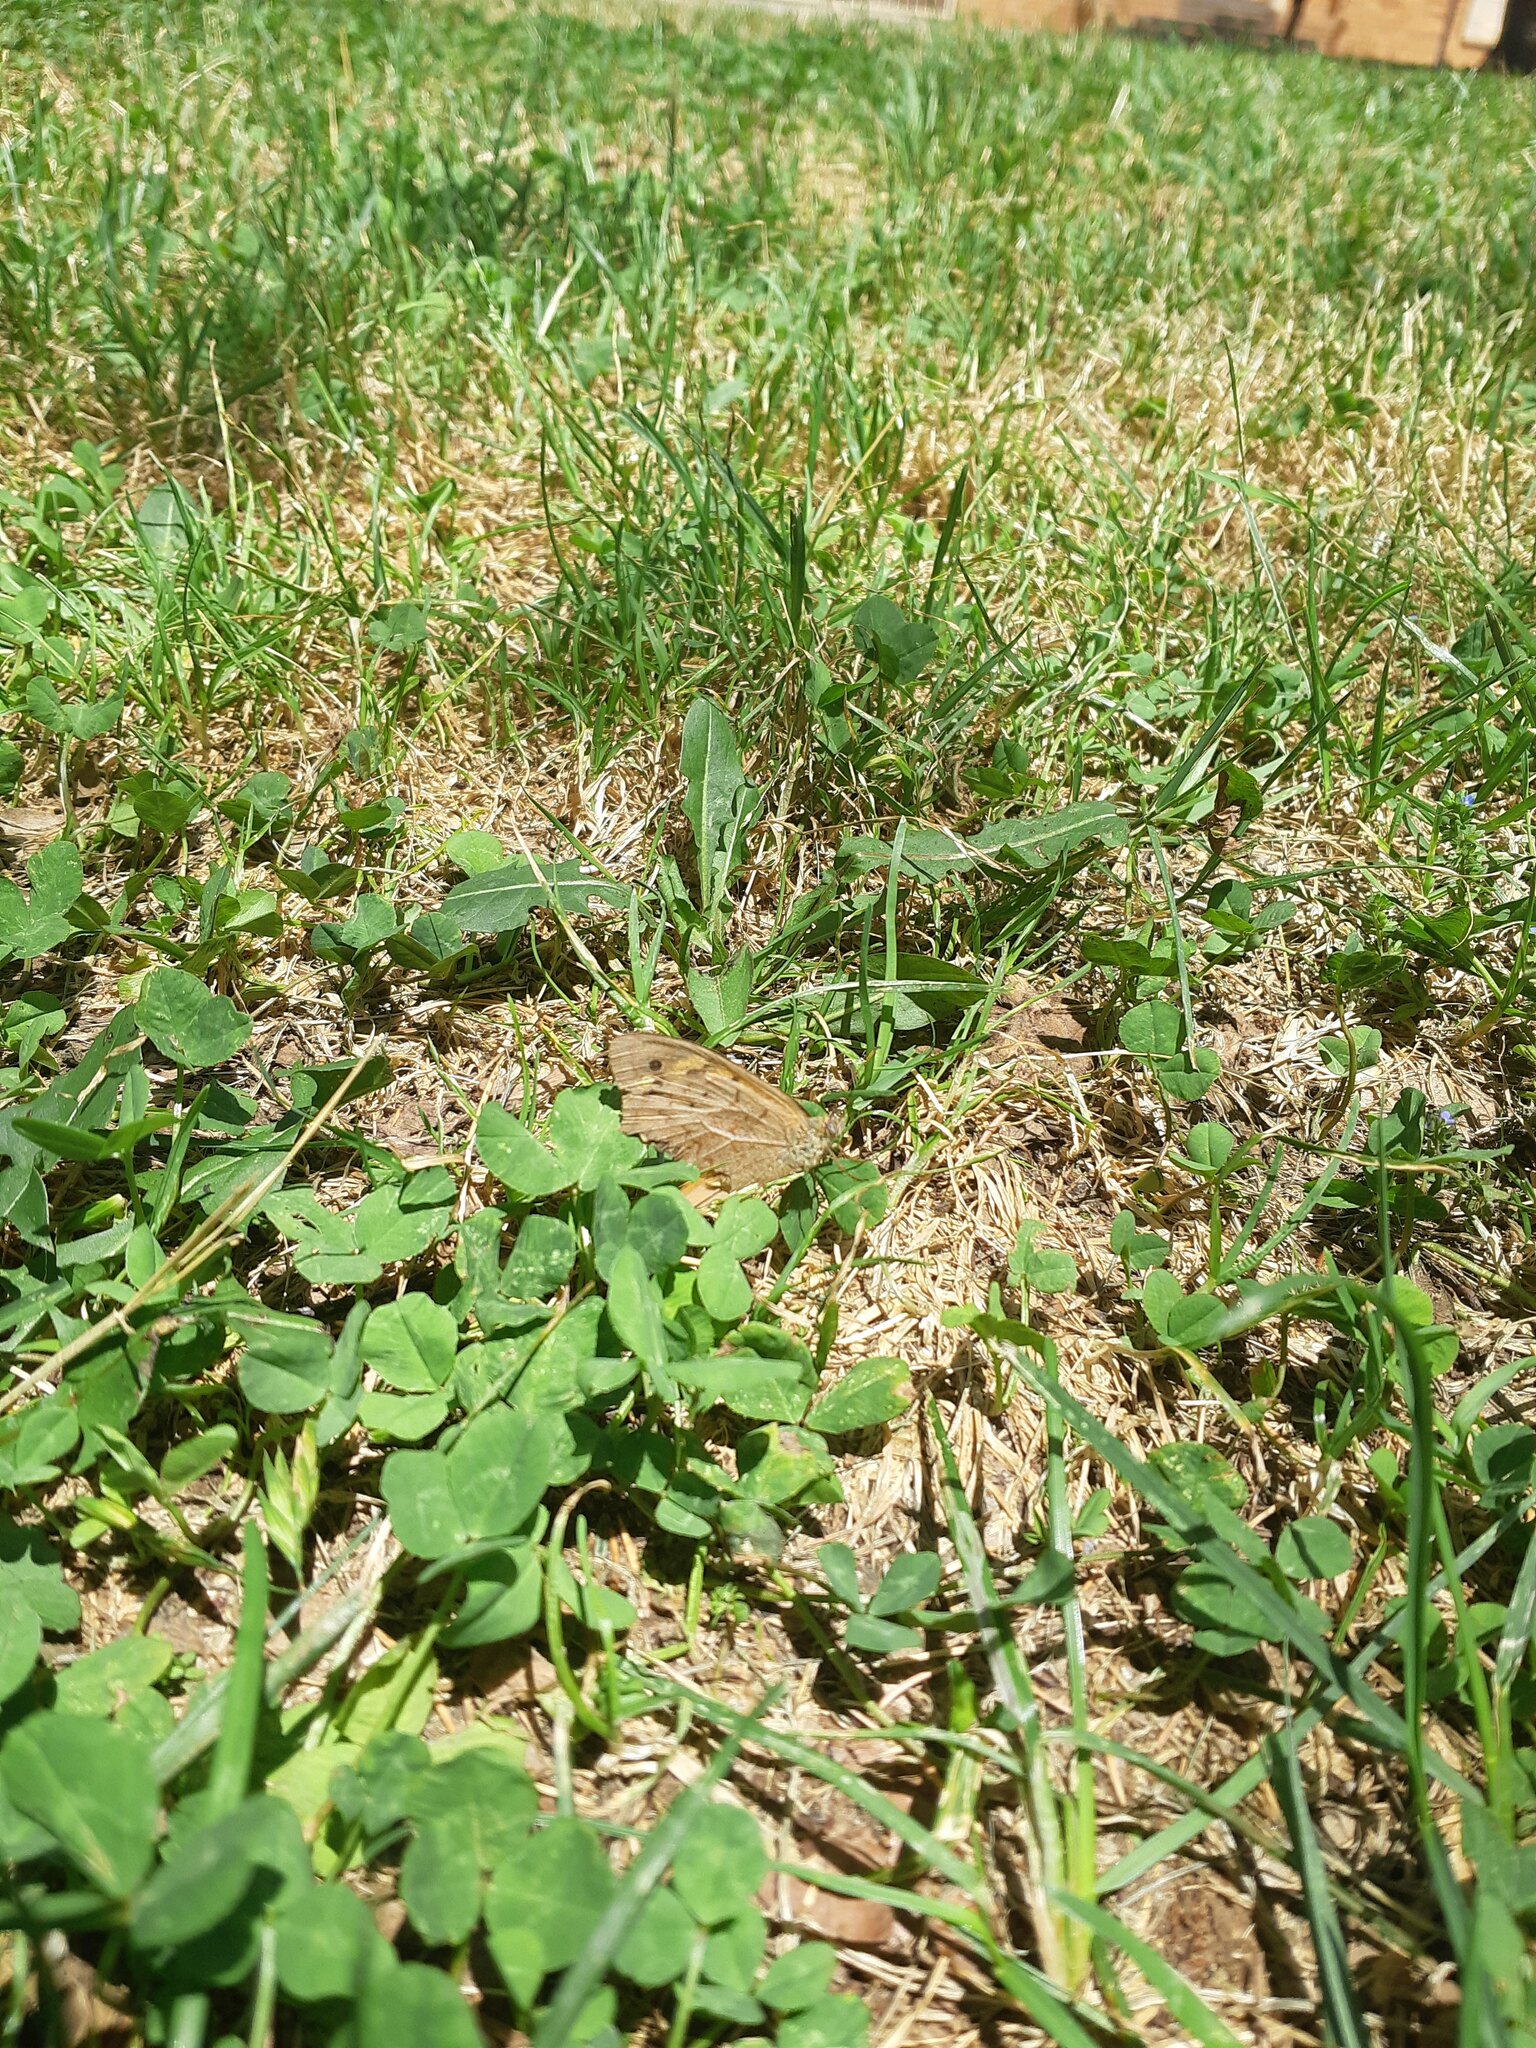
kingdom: Animalia
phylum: Arthropoda
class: Insecta
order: Lepidoptera
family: Nymphalidae
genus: Heteronympha
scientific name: Heteronympha merope
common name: Common brown
